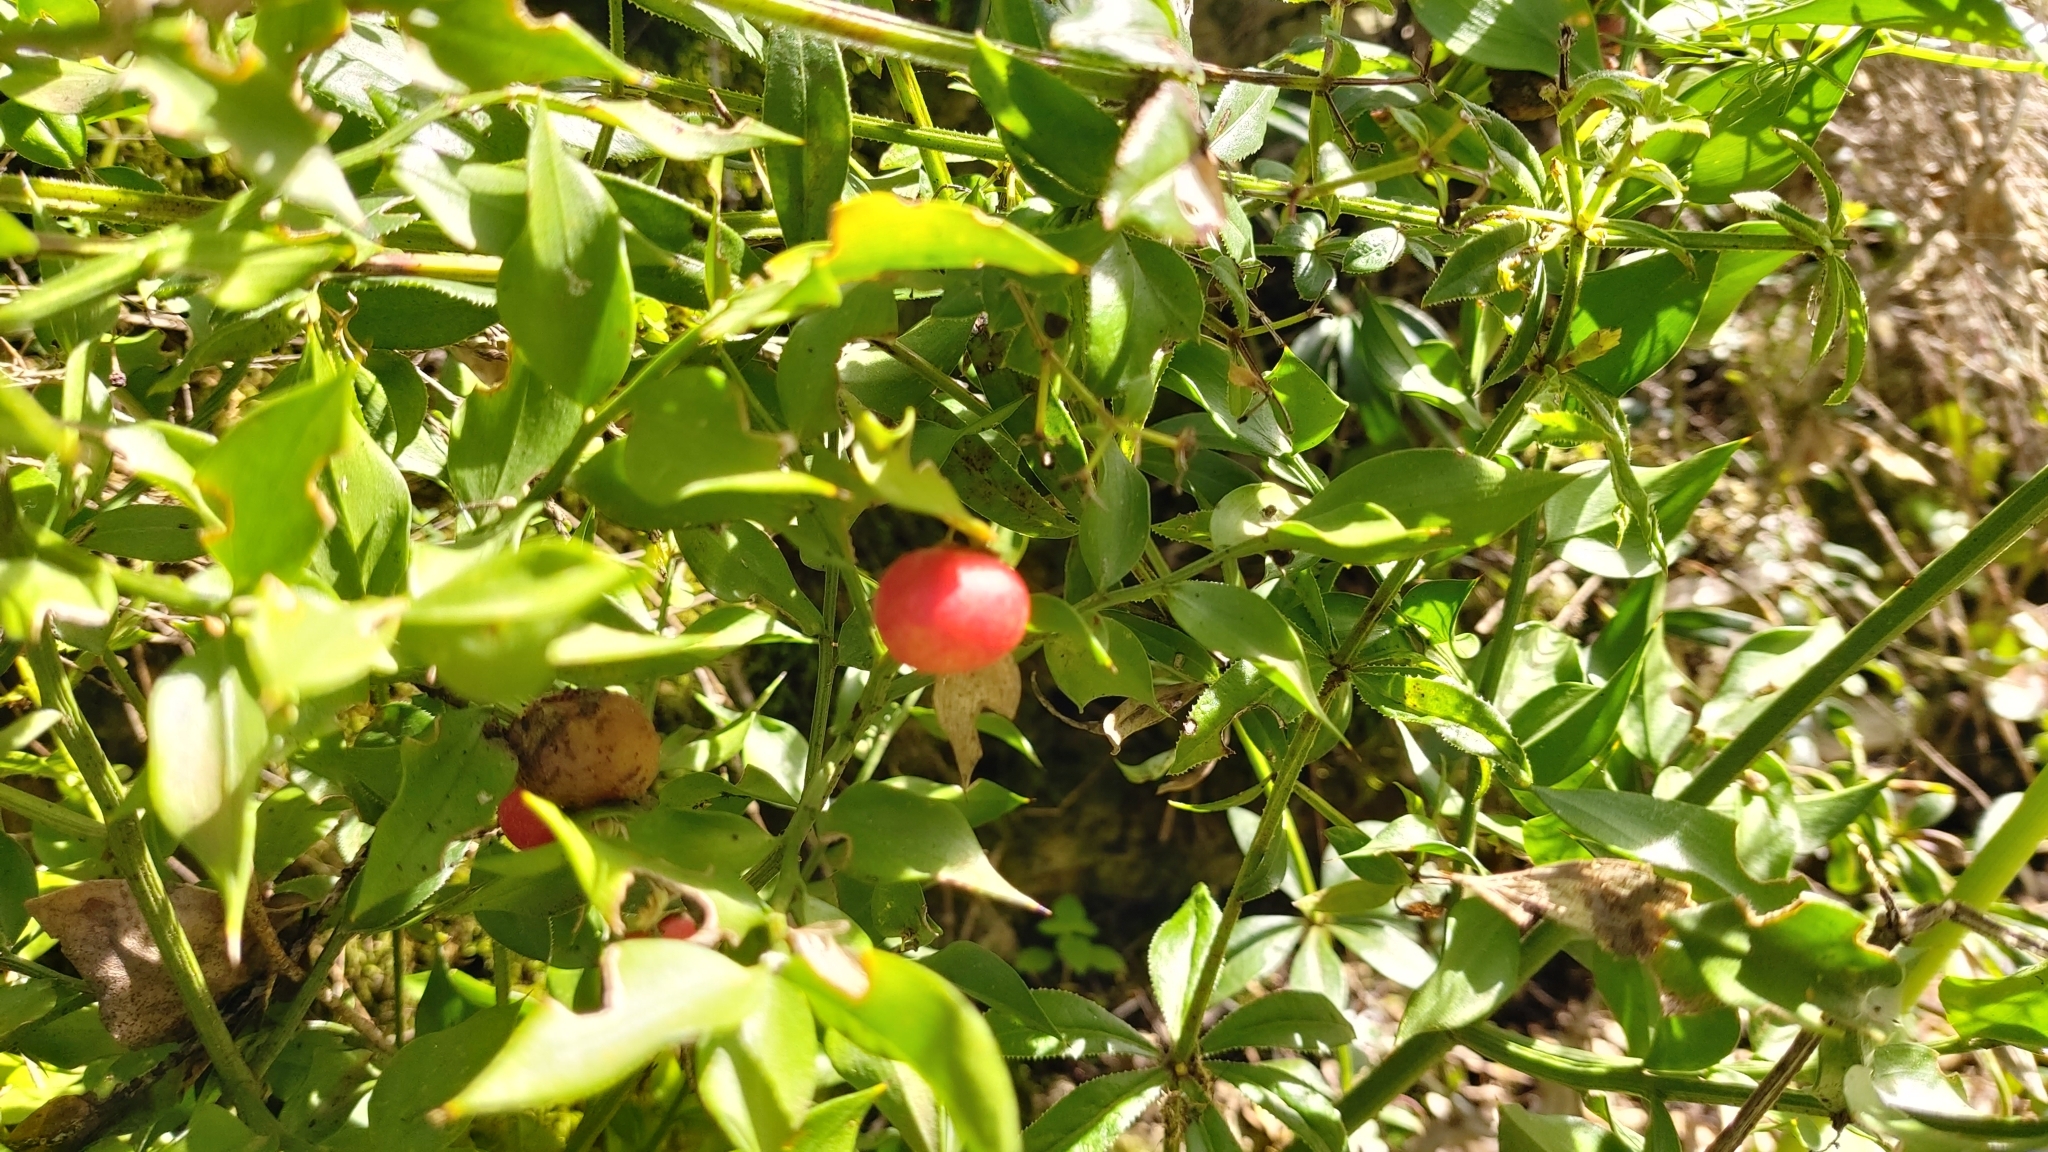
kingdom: Plantae
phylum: Tracheophyta
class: Liliopsida
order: Asparagales
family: Asparagaceae
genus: Ruscus
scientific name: Ruscus aculeatus
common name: Butcher's-broom
